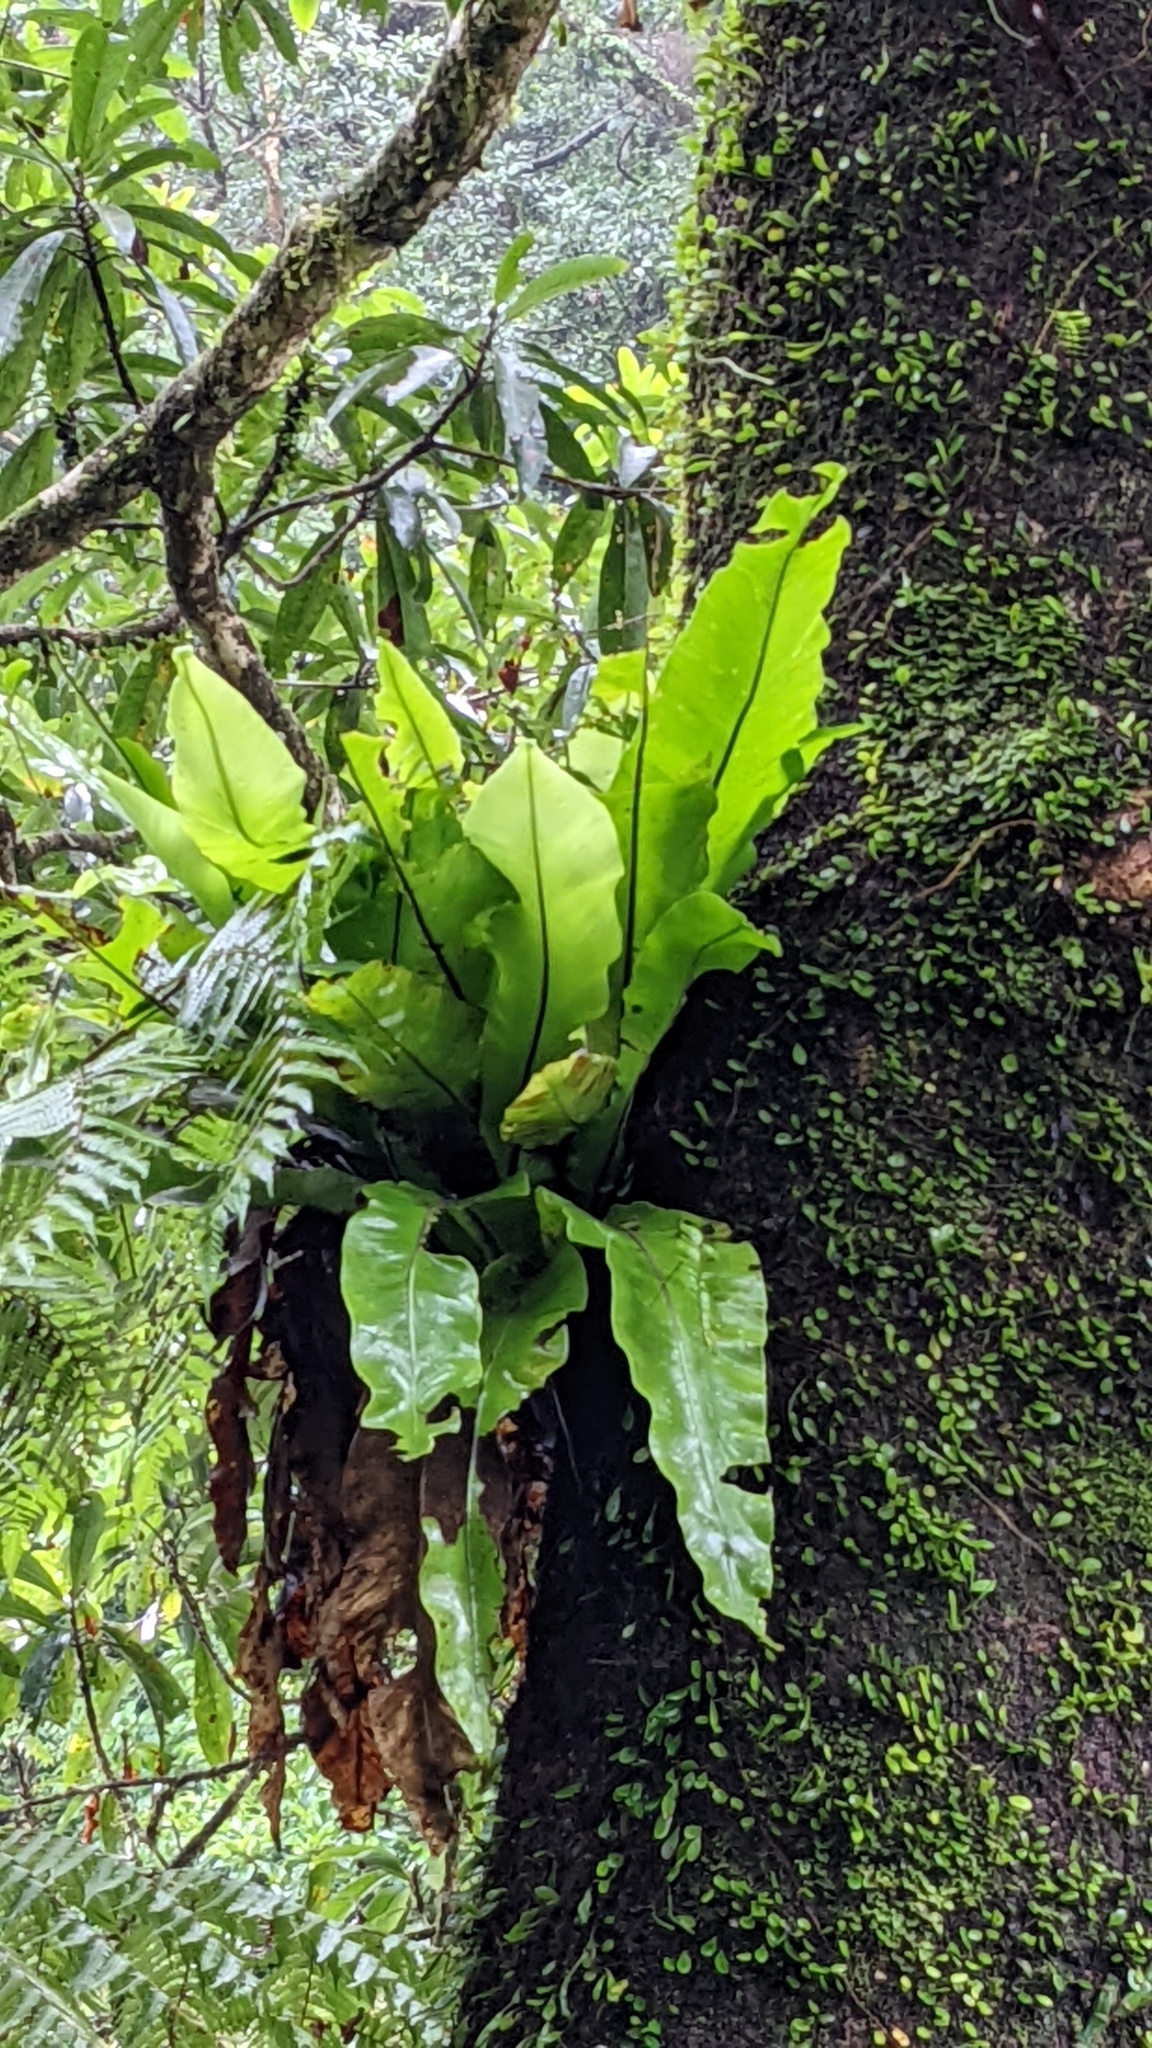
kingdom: Plantae
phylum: Tracheophyta
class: Polypodiopsida
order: Polypodiales
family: Aspleniaceae
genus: Asplenium
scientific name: Asplenium nidus
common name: Bird's-nest fern
